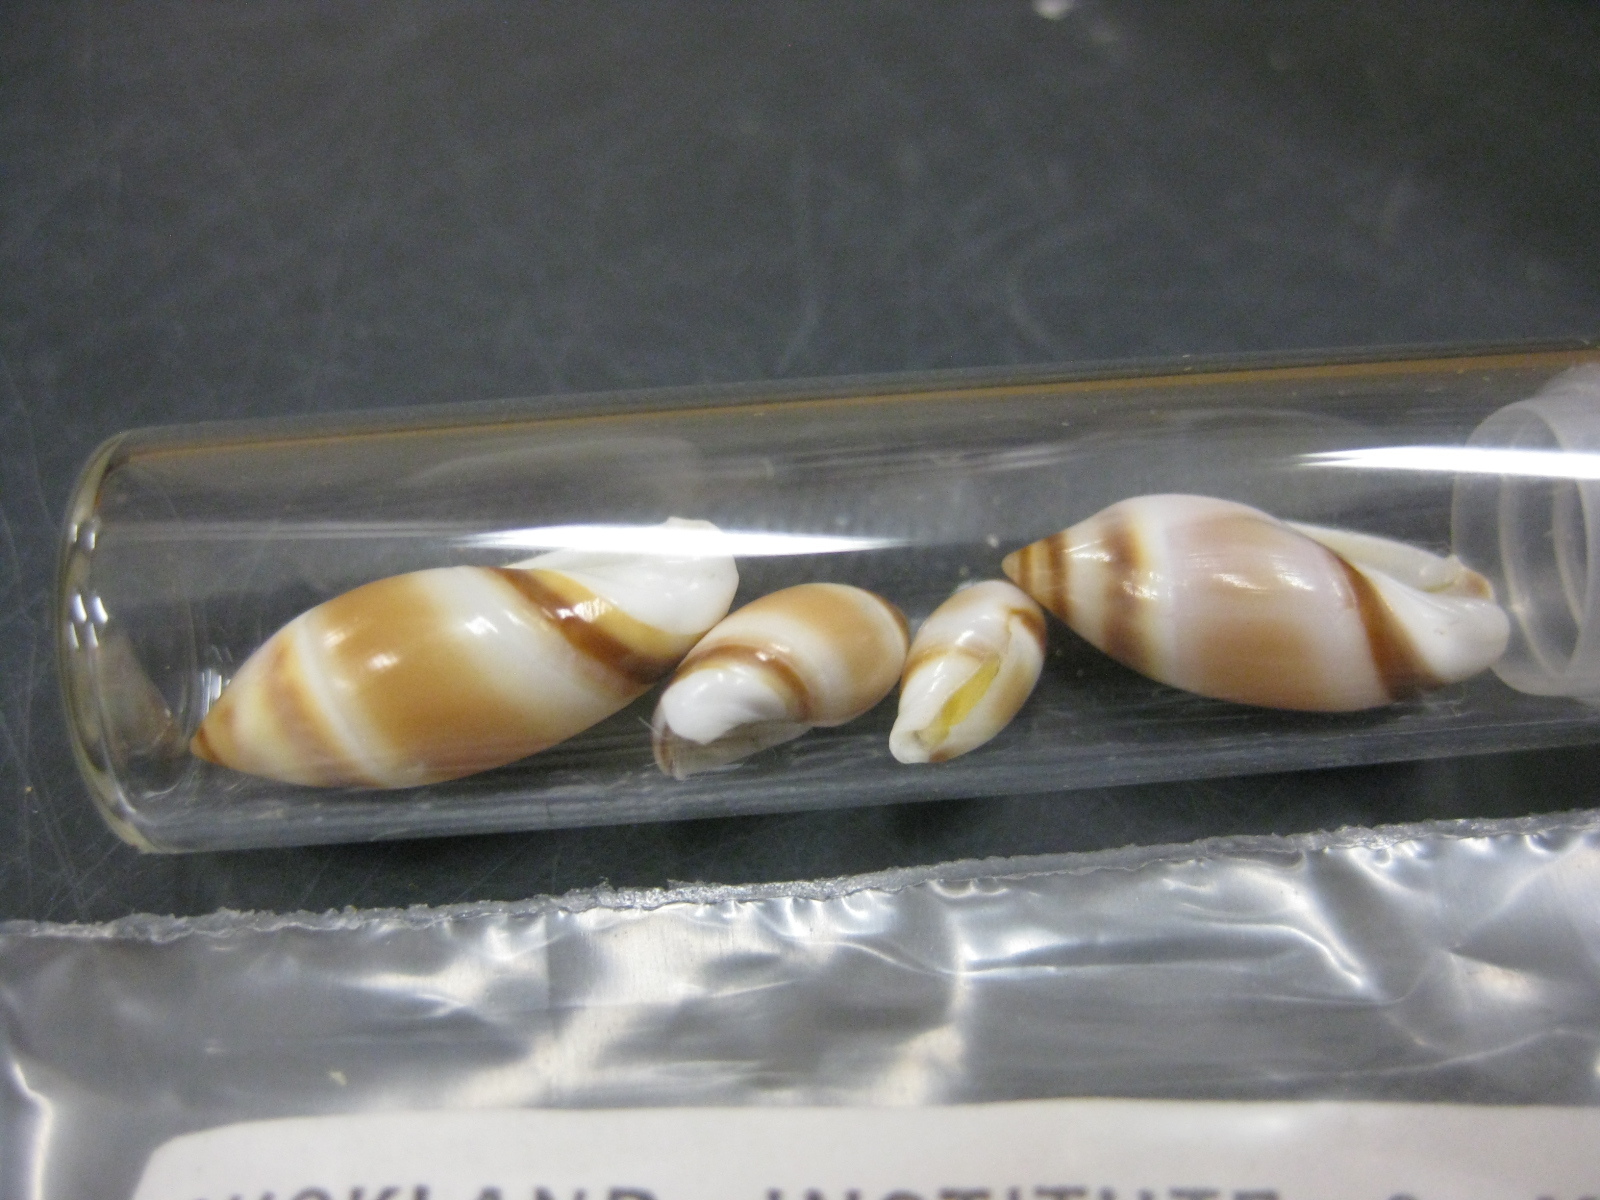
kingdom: Animalia
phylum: Mollusca
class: Gastropoda
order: Neogastropoda
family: Ancillariidae
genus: Amalda
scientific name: Amalda northlandica
